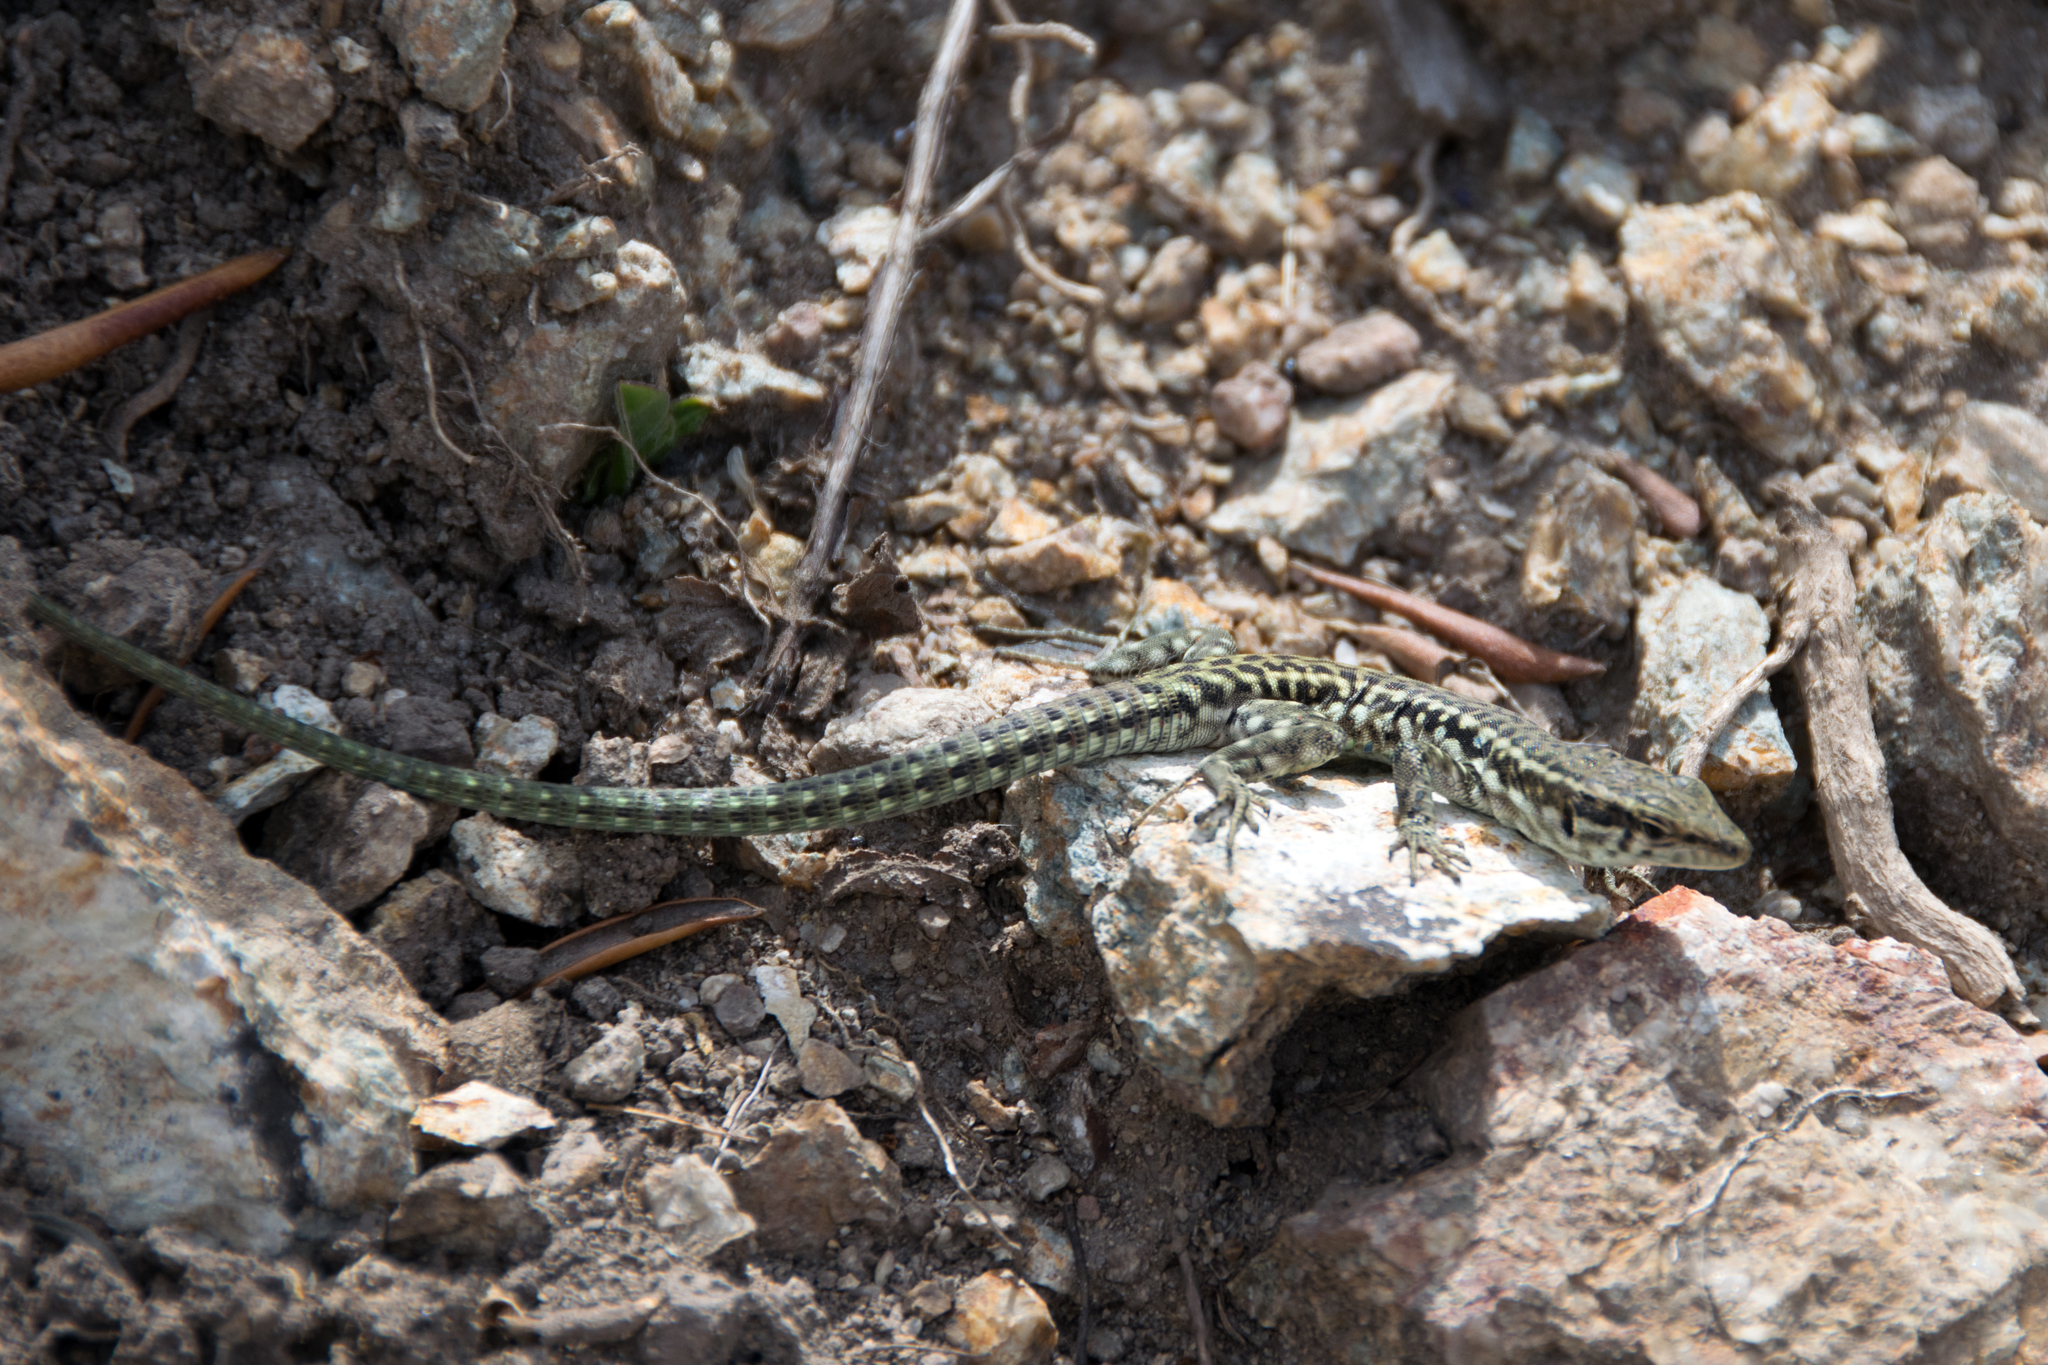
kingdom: Animalia
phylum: Chordata
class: Squamata
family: Lacertidae
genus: Podarcis
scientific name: Podarcis tiliguerta
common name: Tyrrhenian wall lizard
